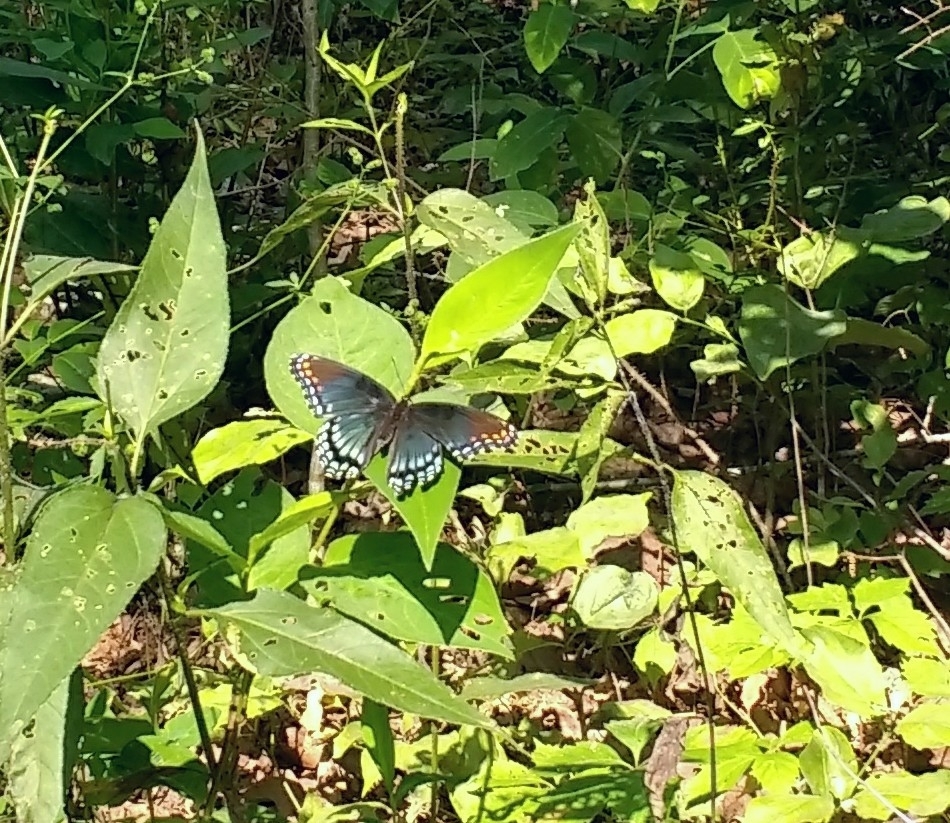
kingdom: Animalia
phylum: Arthropoda
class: Insecta
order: Lepidoptera
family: Nymphalidae
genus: Limenitis
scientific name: Limenitis astyanax
